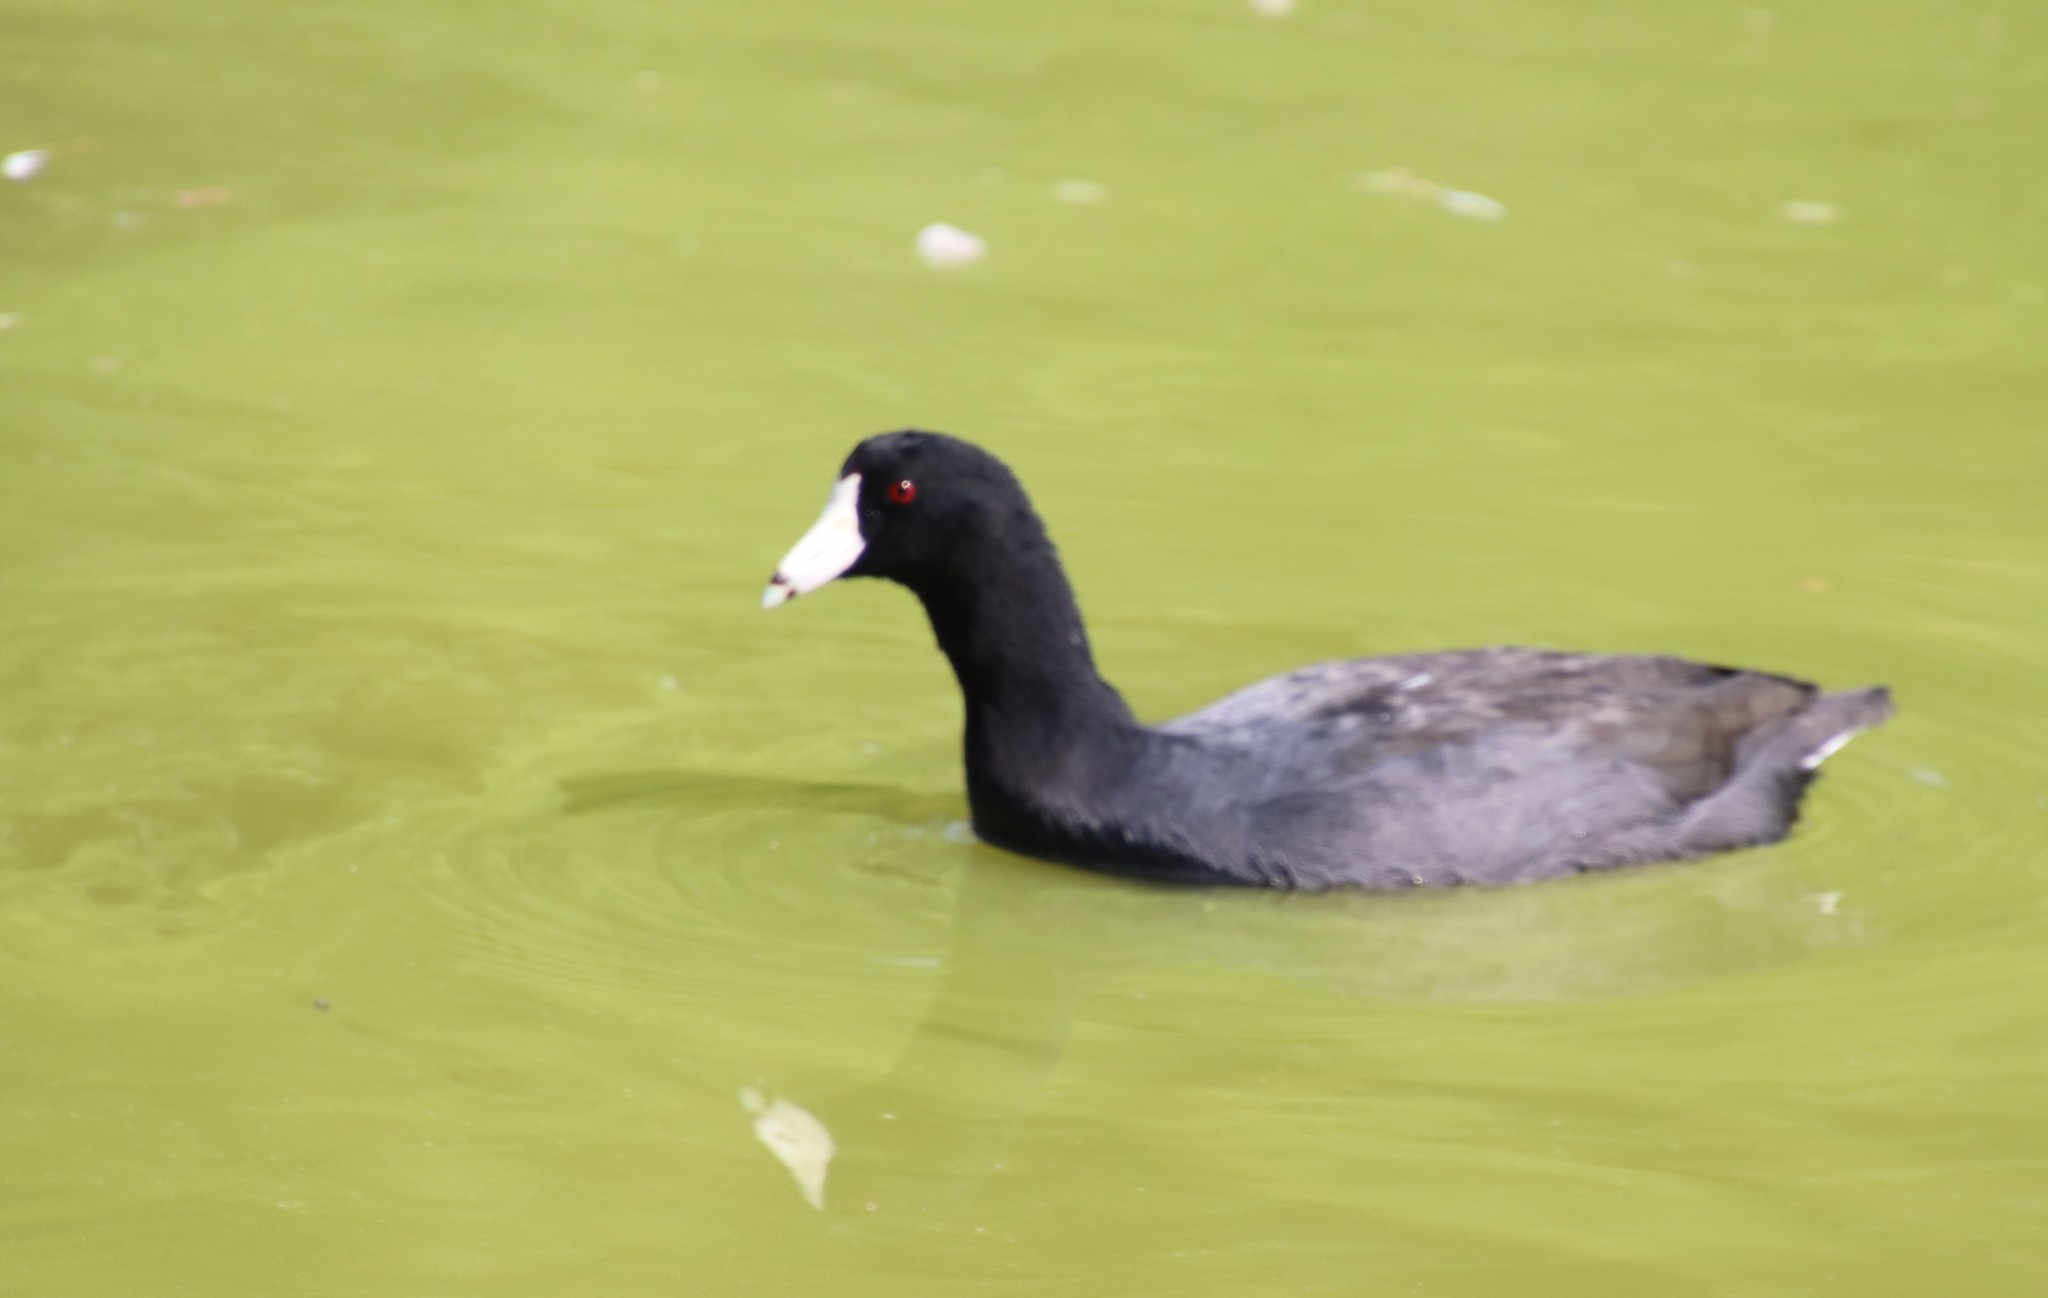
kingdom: Animalia
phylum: Chordata
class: Aves
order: Gruiformes
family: Rallidae
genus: Fulica
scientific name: Fulica americana
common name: American coot
